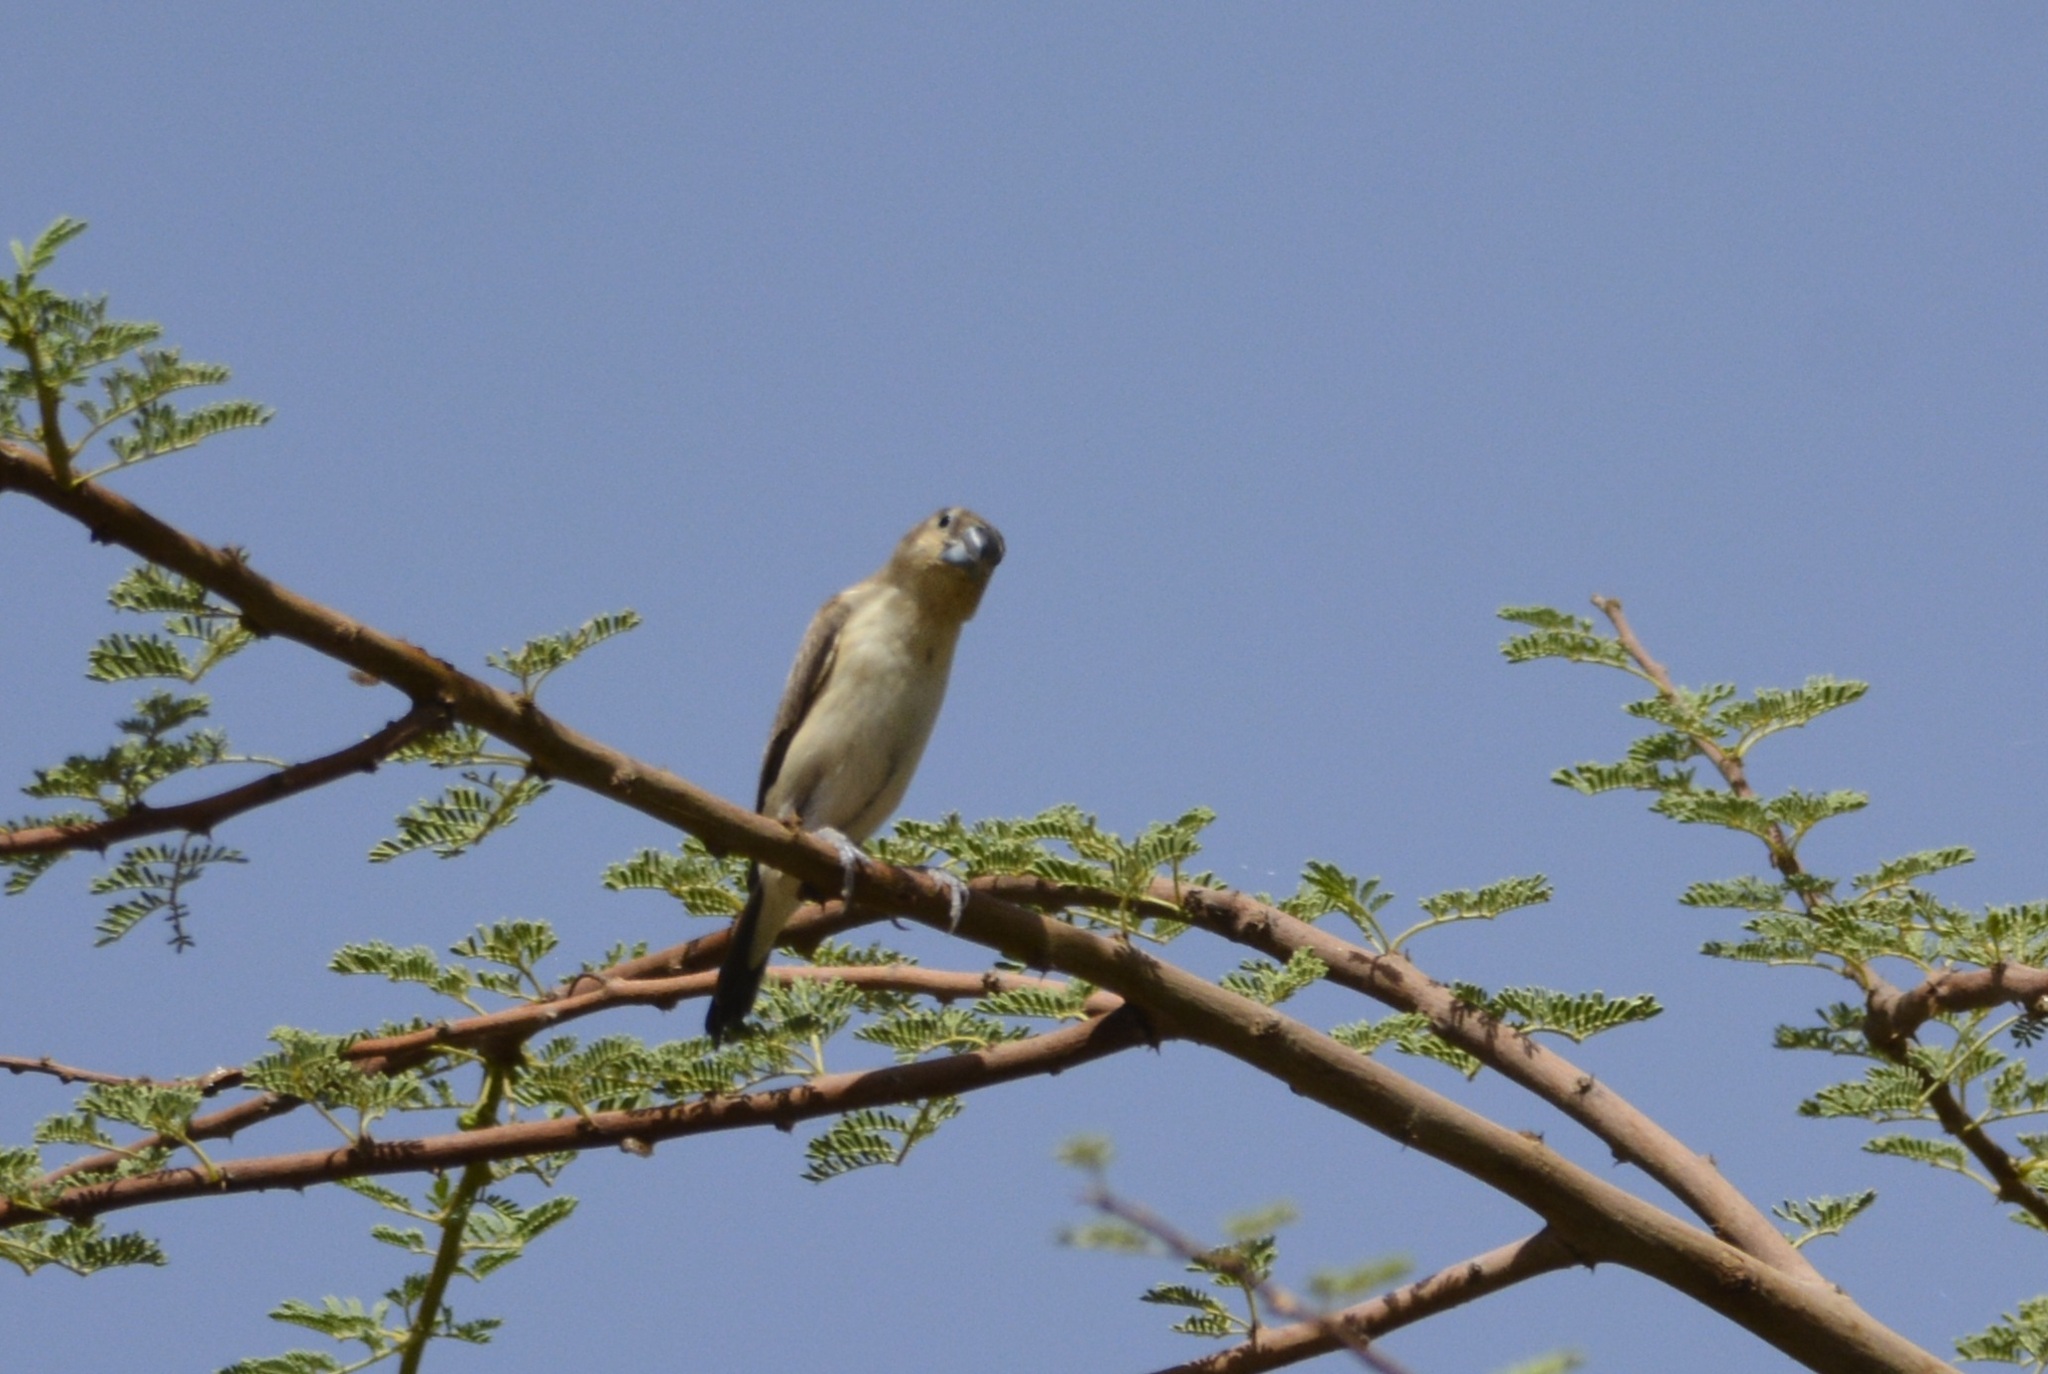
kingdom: Animalia
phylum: Chordata
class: Aves
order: Passeriformes
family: Estrildidae
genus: Euodice
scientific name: Euodice cantans
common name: African silverbill
